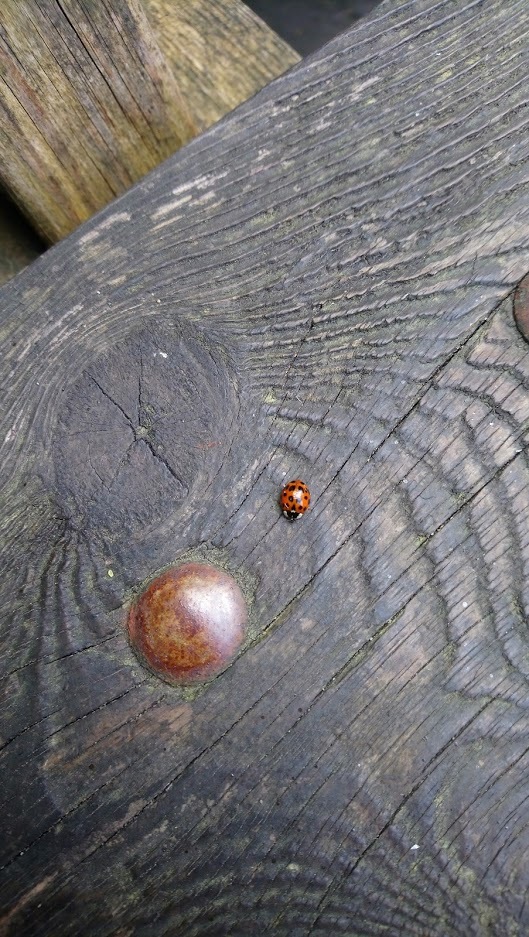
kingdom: Animalia
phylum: Arthropoda
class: Insecta
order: Coleoptera
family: Coccinellidae
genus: Harmonia
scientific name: Harmonia axyridis
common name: Harlequin ladybird
